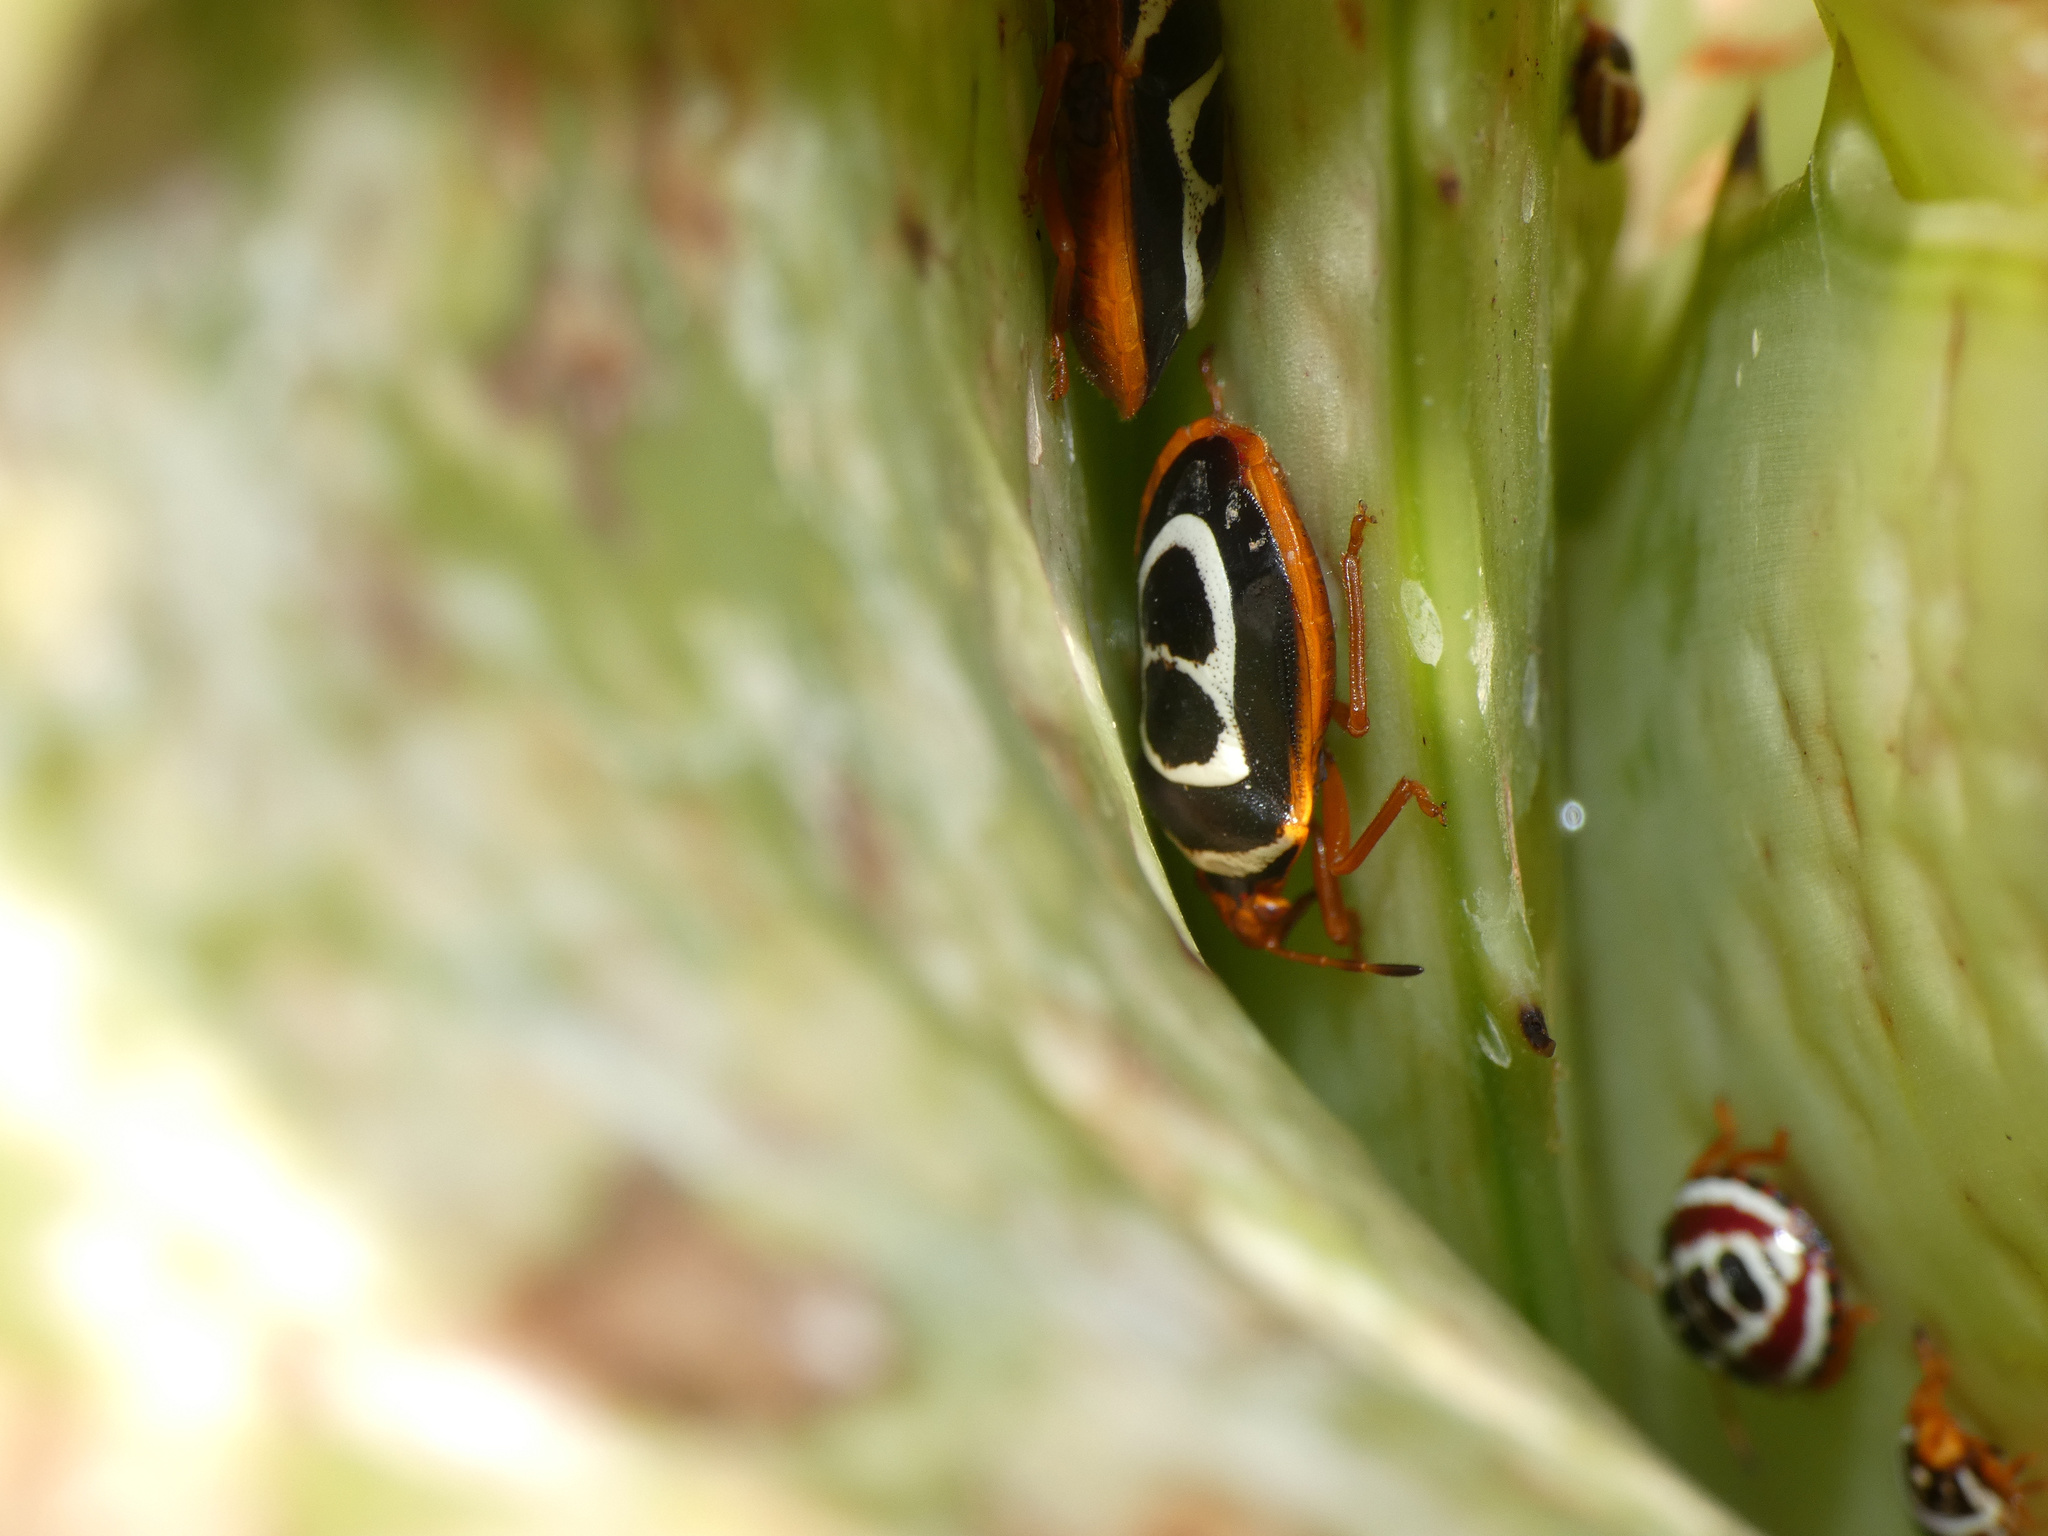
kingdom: Animalia
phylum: Arthropoda
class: Insecta
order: Hemiptera
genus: Flaminia
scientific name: Flaminia
